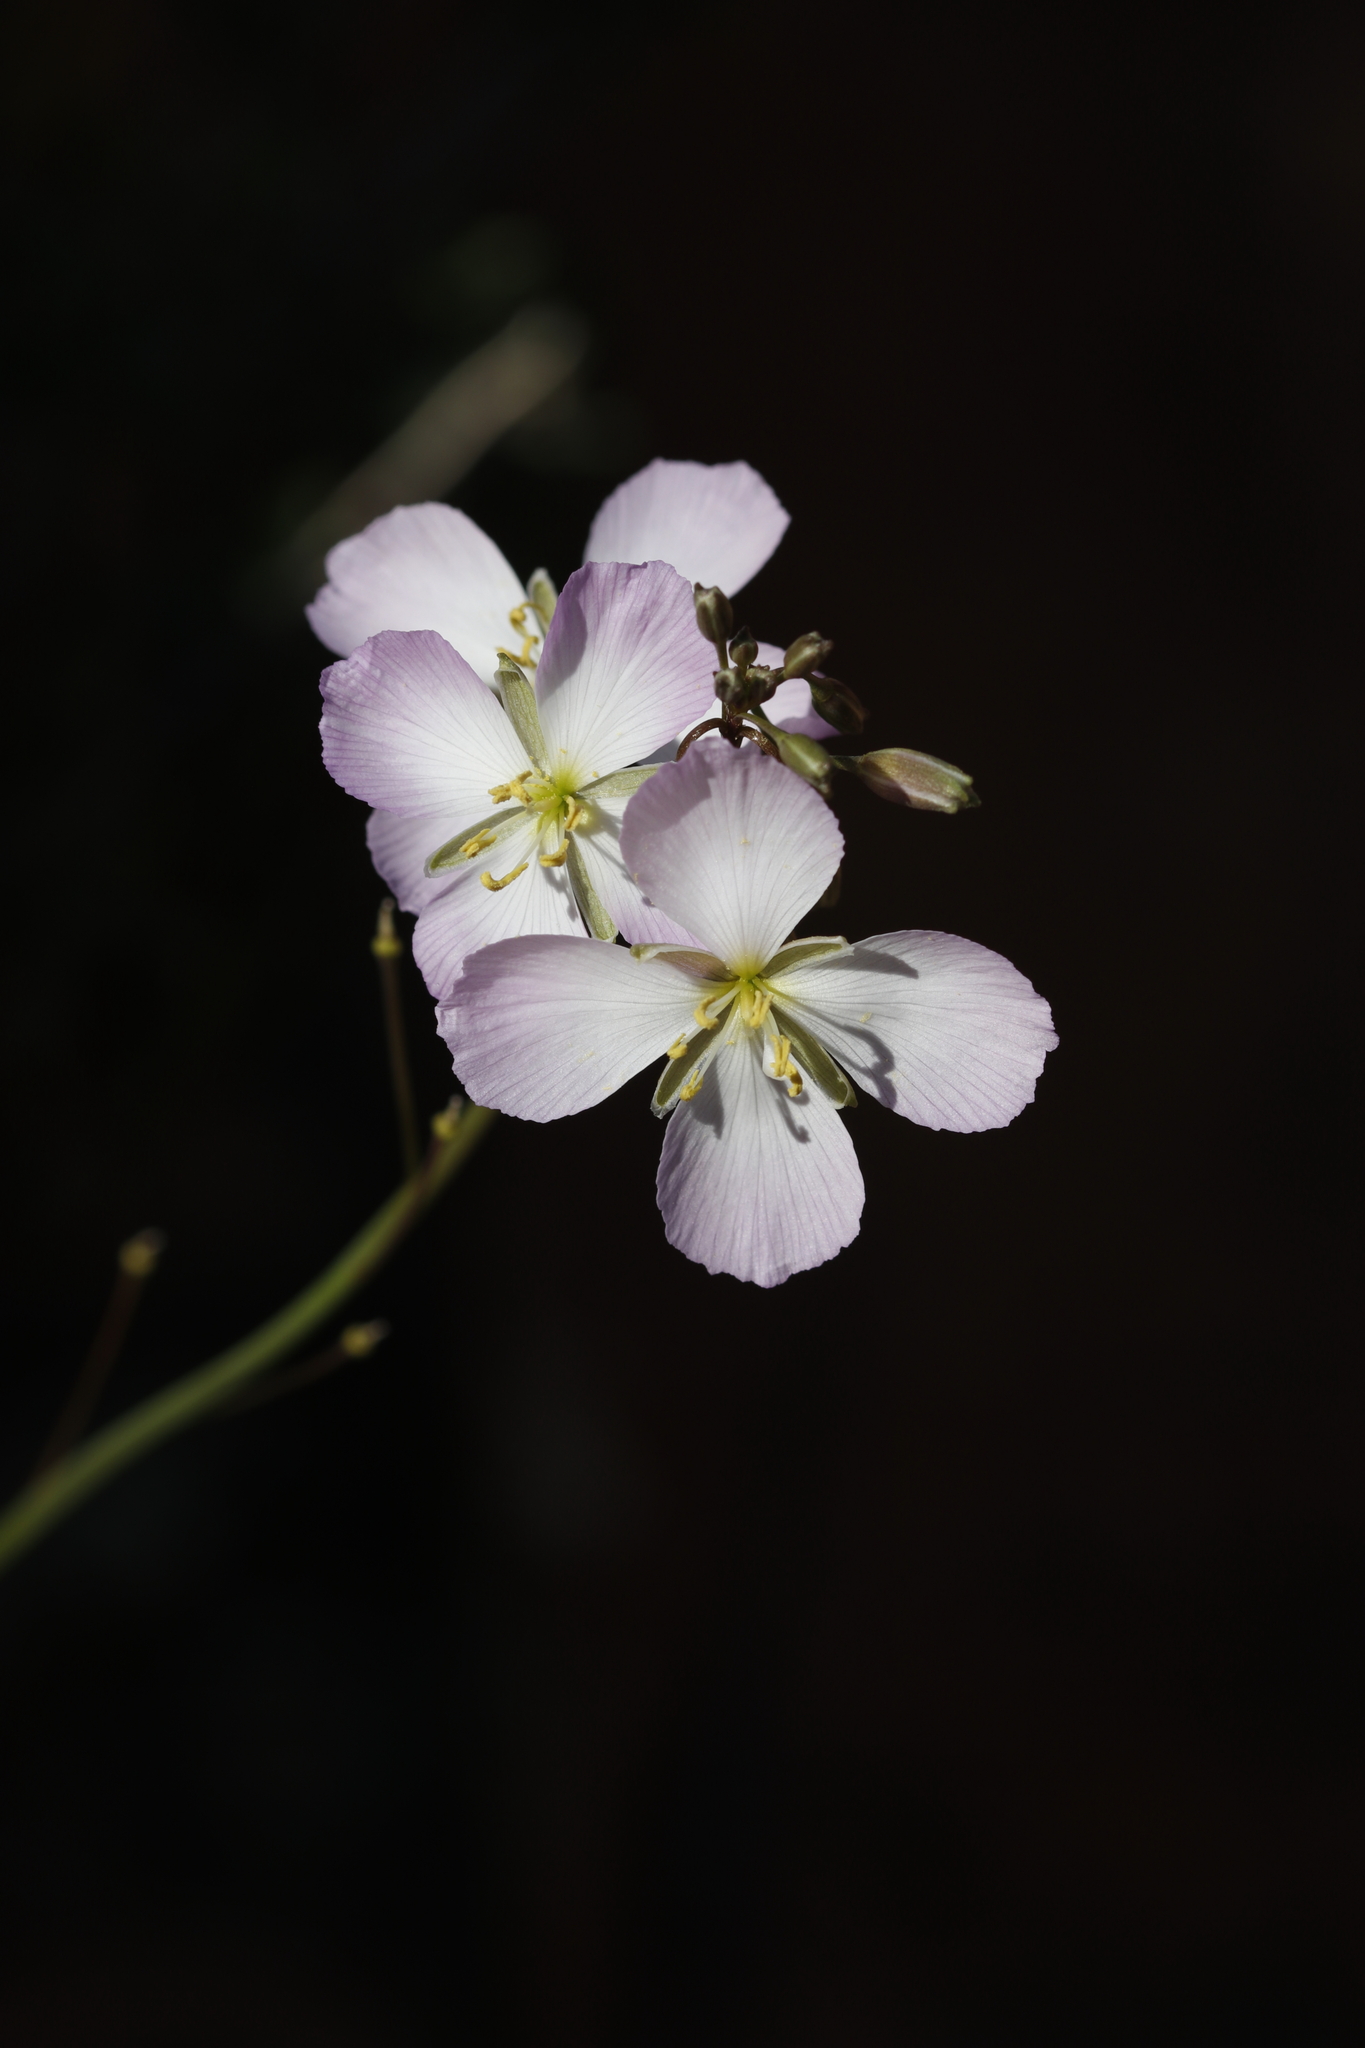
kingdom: Plantae
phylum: Tracheophyta
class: Magnoliopsida
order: Brassicales
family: Brassicaceae
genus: Heliophila
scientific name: Heliophila carnosa
